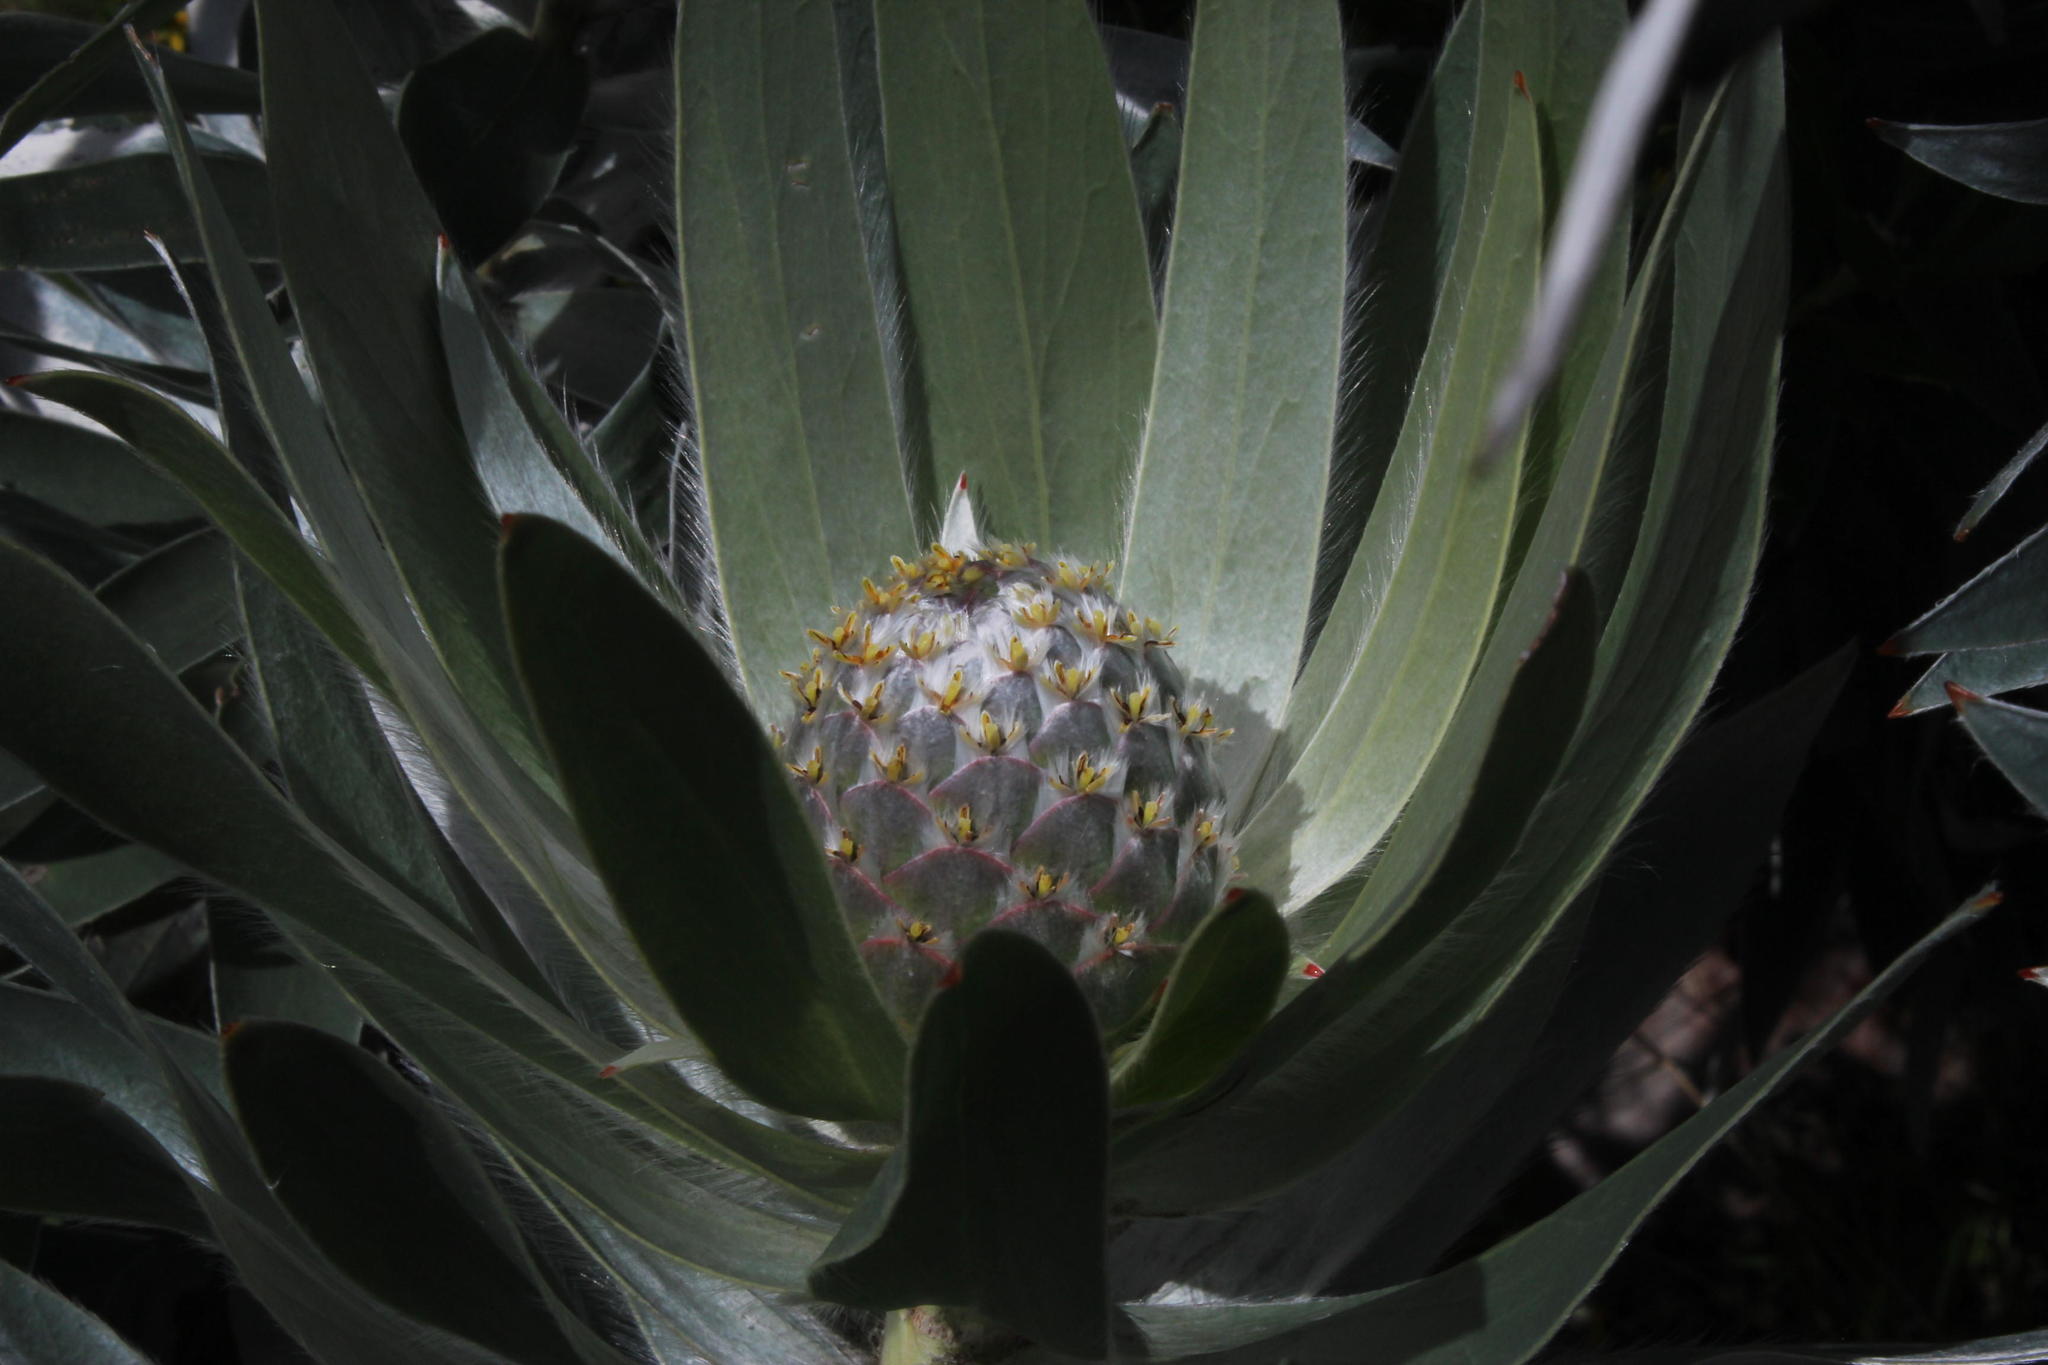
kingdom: Plantae
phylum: Tracheophyta
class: Magnoliopsida
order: Proteales
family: Proteaceae
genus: Leucadendron
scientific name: Leucadendron argenteum
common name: Cape silver tree
